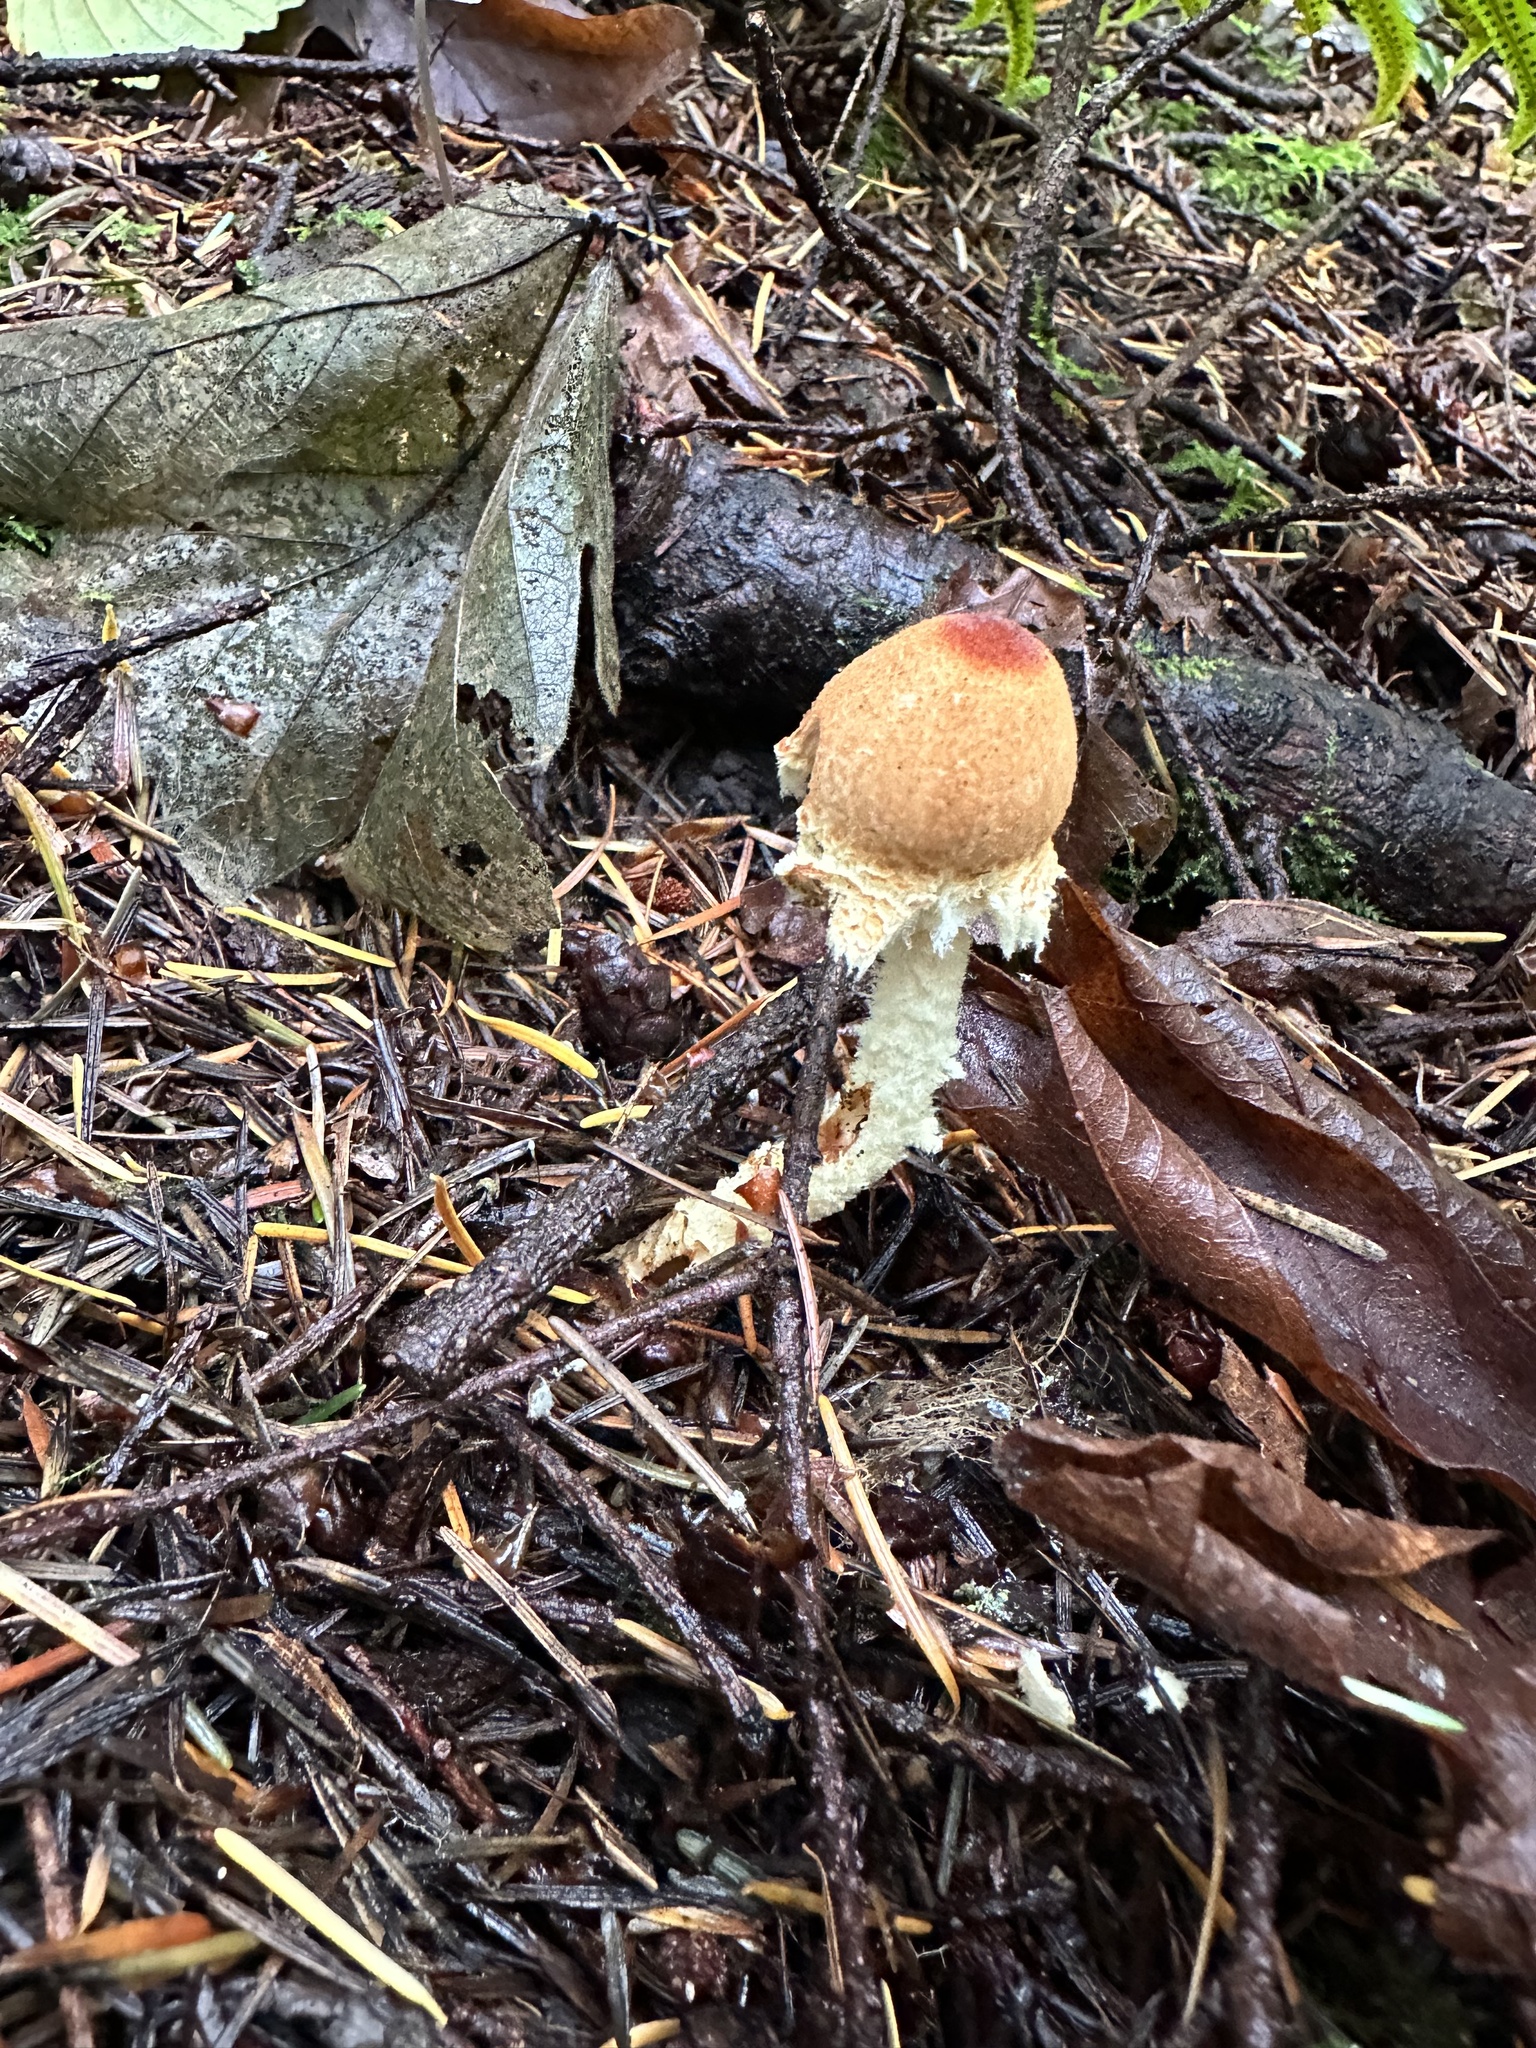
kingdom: Fungi
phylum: Basidiomycota
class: Agaricomycetes
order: Agaricales
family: Agaricaceae
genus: Lepiota
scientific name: Lepiota magnispora
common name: Yellowfoot dapperling
